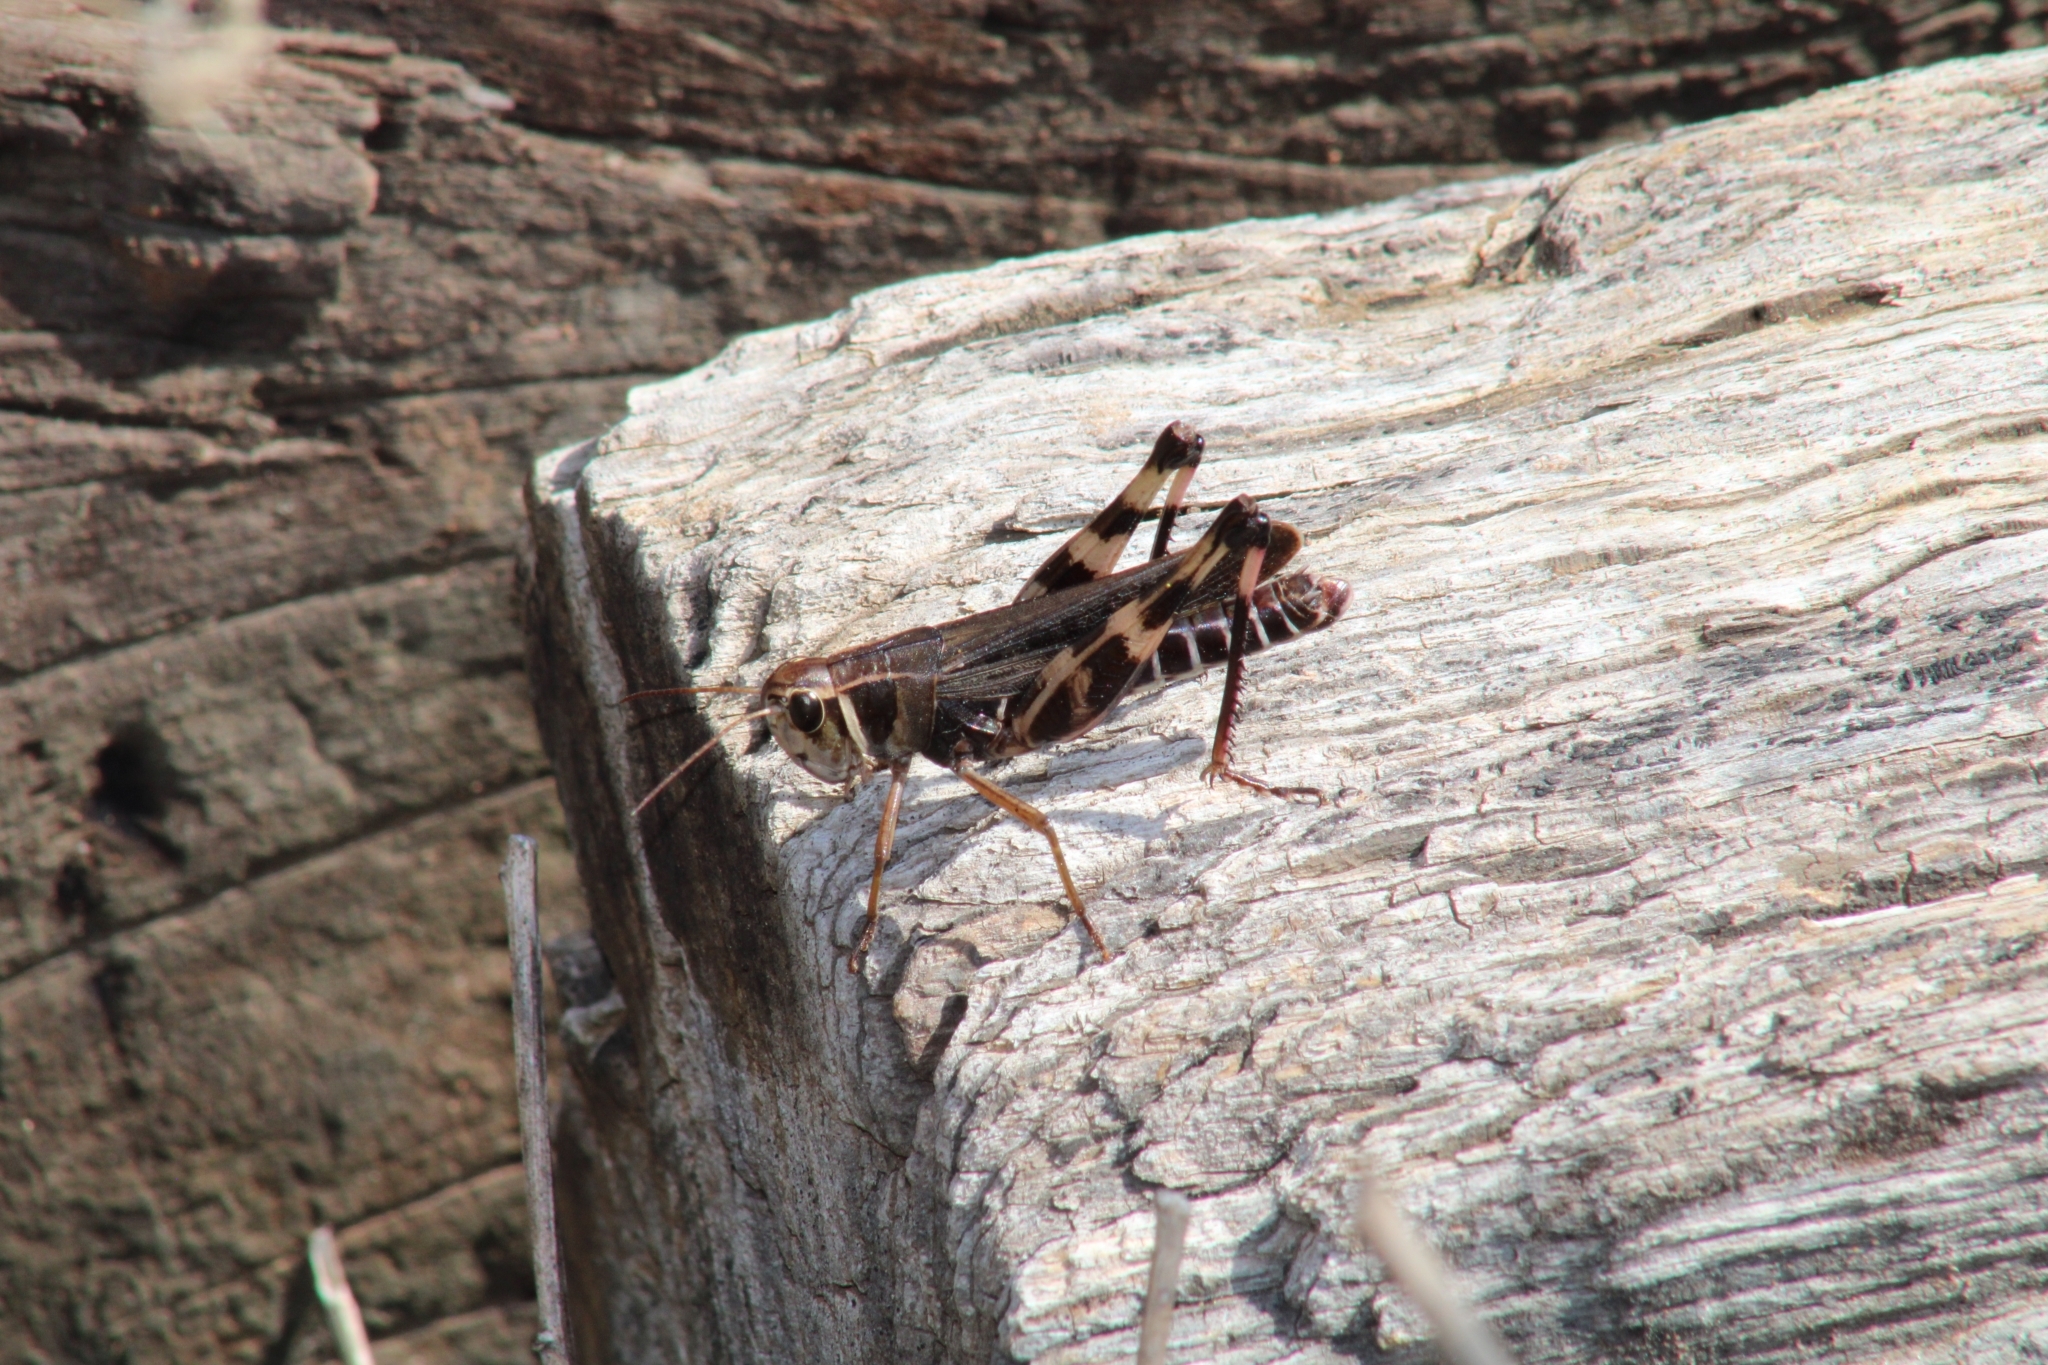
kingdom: Animalia
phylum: Arthropoda
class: Insecta
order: Orthoptera
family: Acrididae
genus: Boopedon
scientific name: Boopedon gracile
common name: Graceful range grasshopper
